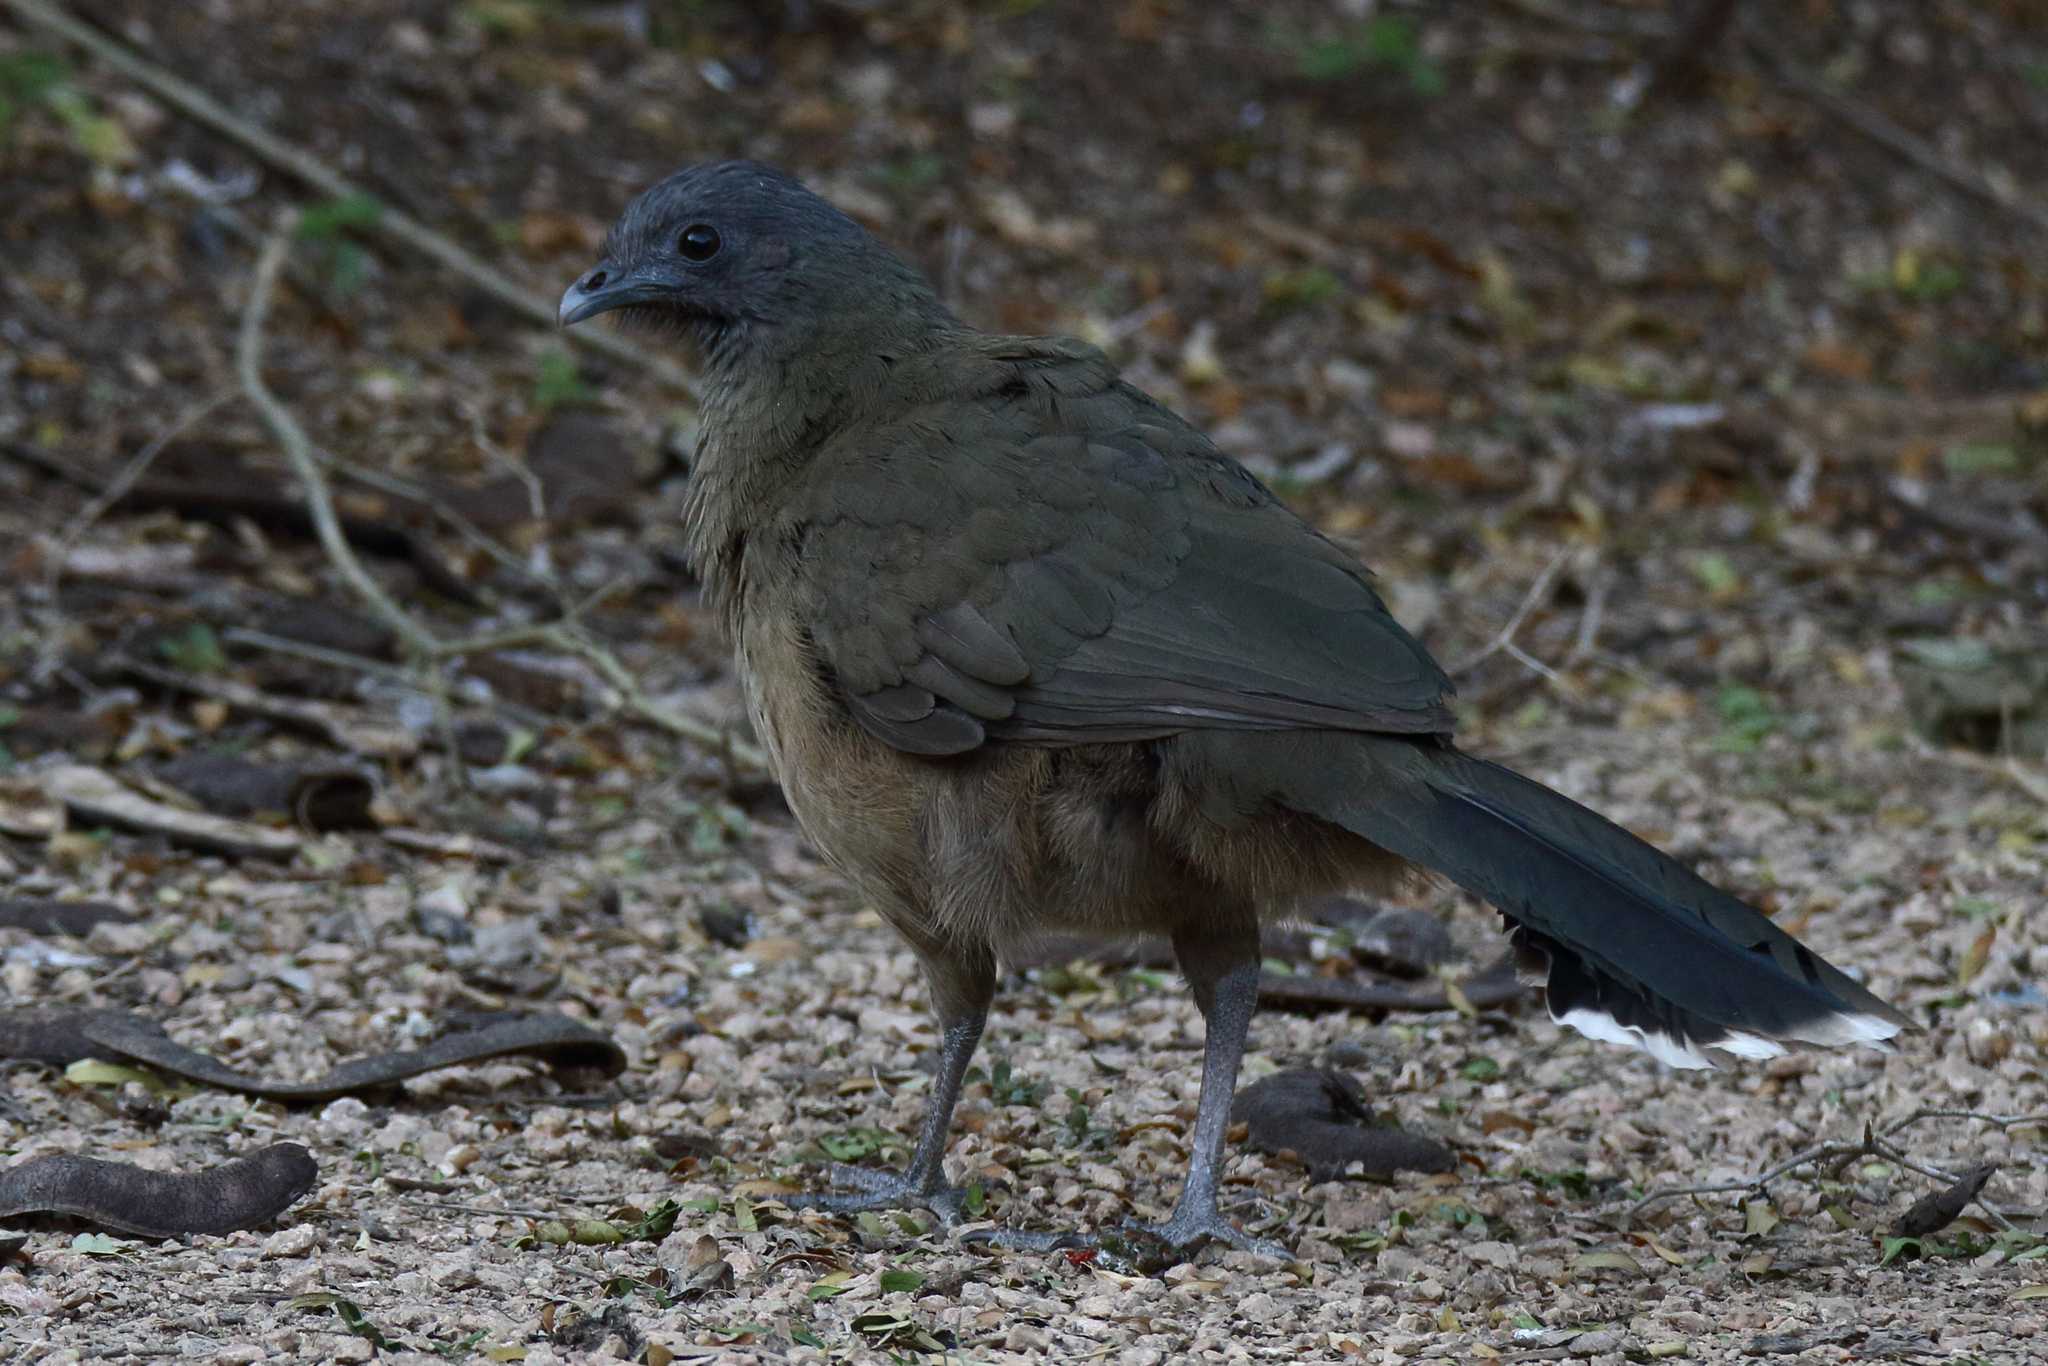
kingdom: Animalia
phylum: Chordata
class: Aves
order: Galliformes
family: Cracidae
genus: Ortalis
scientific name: Ortalis vetula
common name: Plain chachalaca
